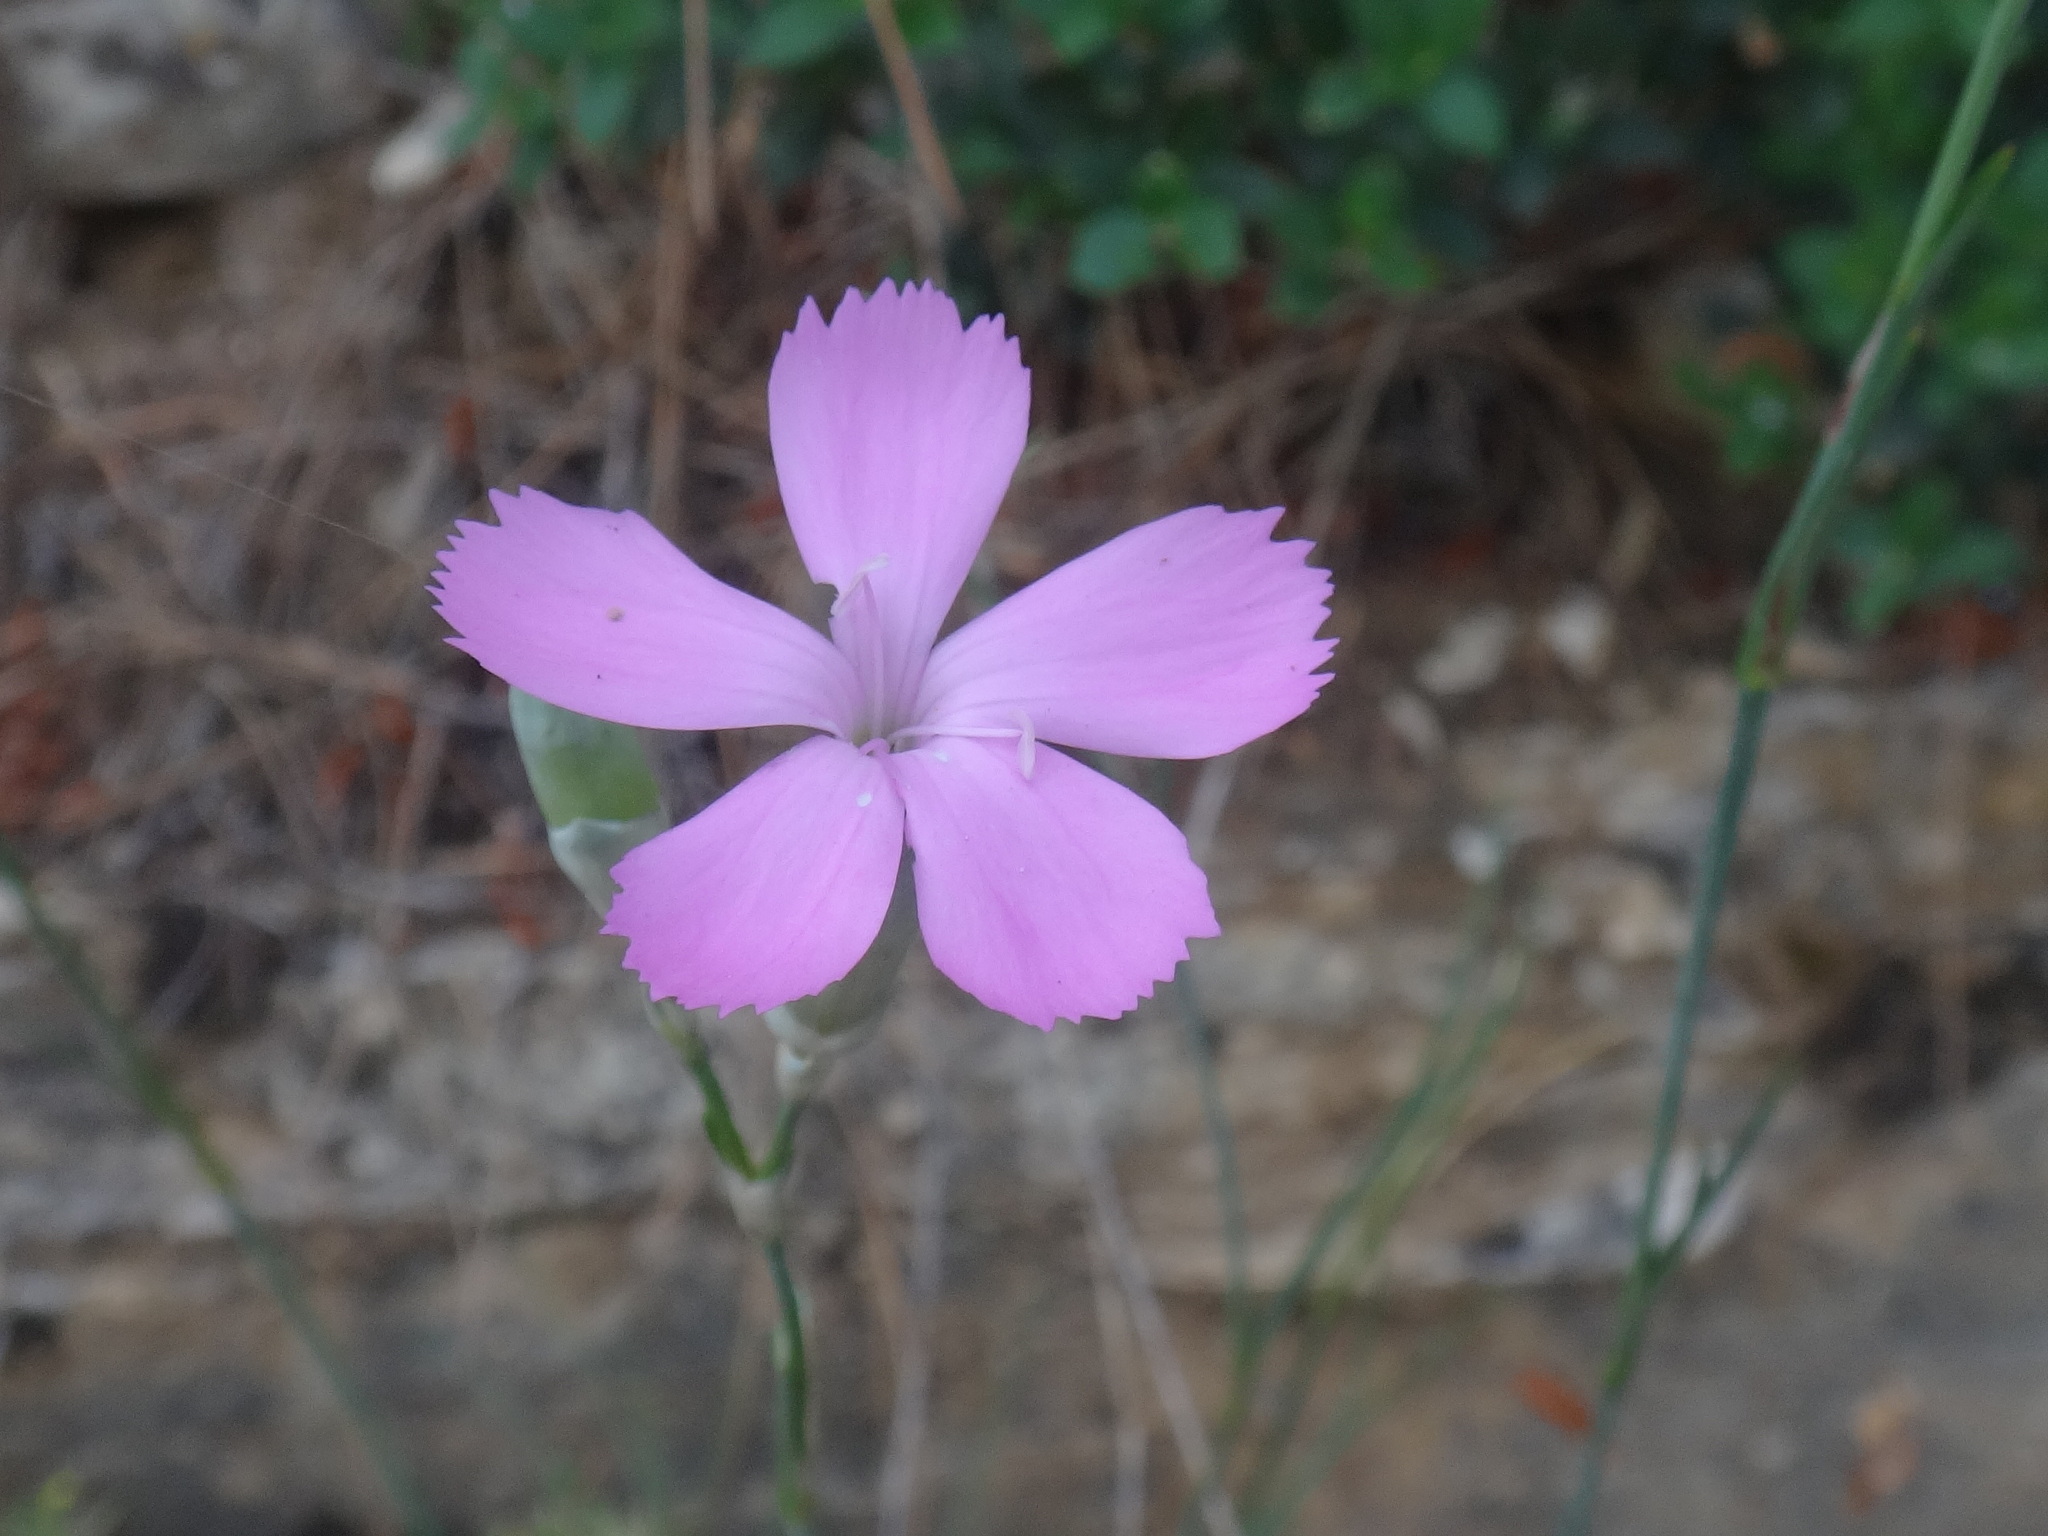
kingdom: Plantae
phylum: Tracheophyta
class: Magnoliopsida
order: Caryophyllales
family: Caryophyllaceae
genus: Dianthus
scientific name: Dianthus sylvestris
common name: Wood pink
